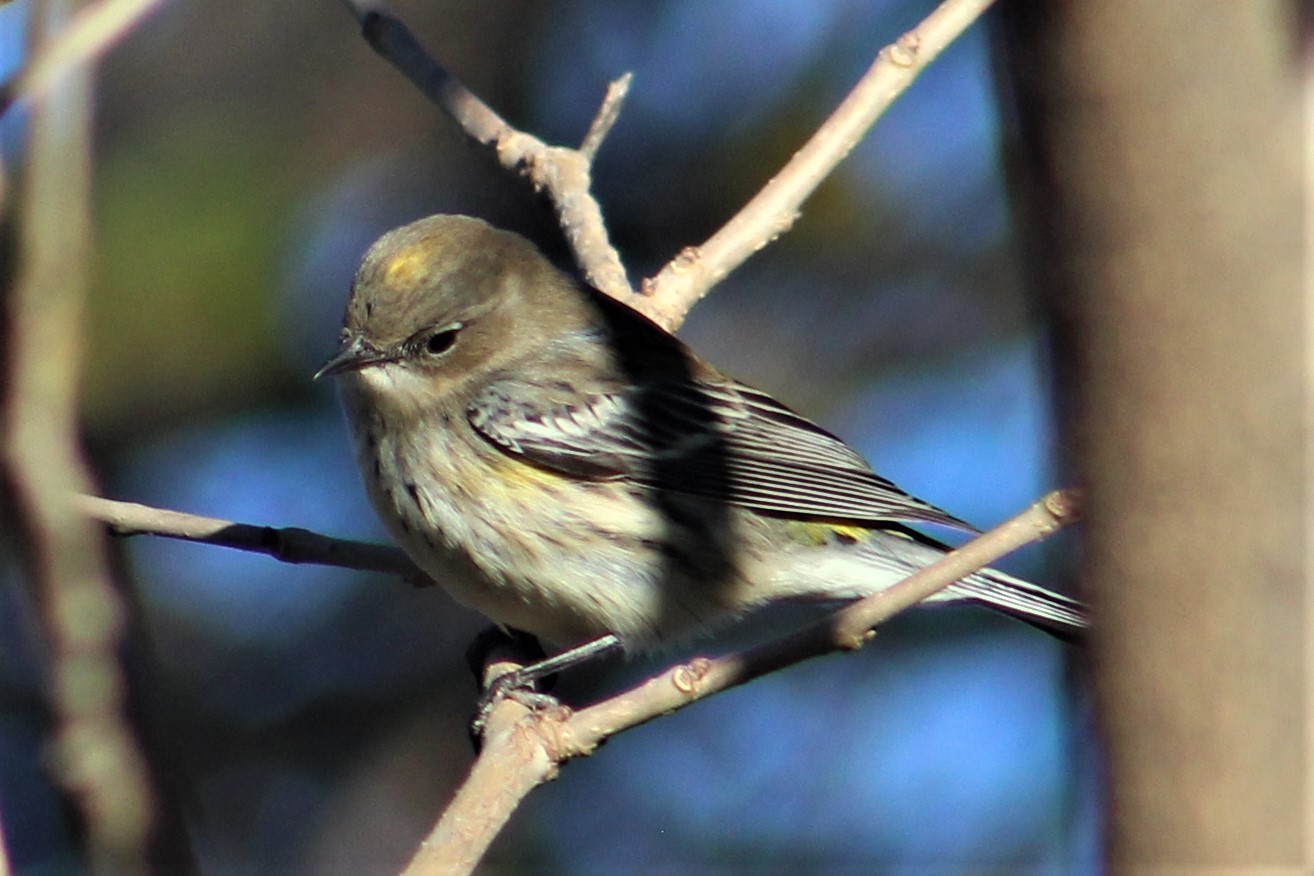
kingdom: Animalia
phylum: Chordata
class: Aves
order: Passeriformes
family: Parulidae
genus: Setophaga
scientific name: Setophaga coronata
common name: Myrtle warbler
